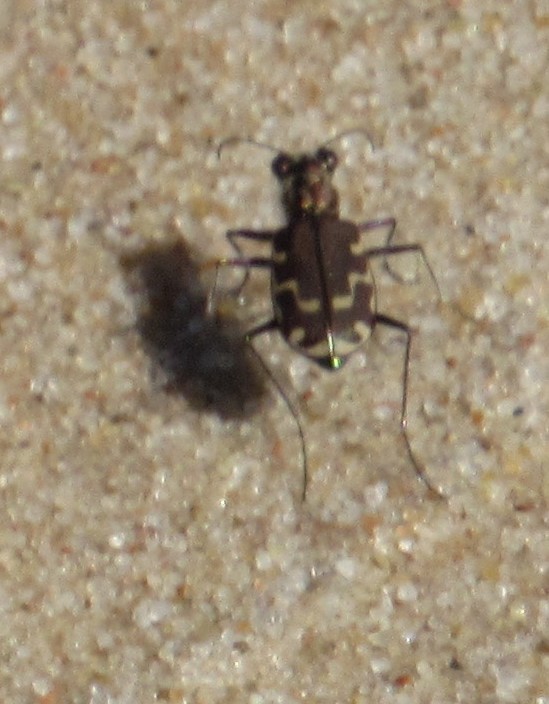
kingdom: Animalia
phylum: Arthropoda
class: Insecta
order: Coleoptera
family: Carabidae
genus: Cicindela
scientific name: Cicindela repanda
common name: Bronzed tiger beetle
